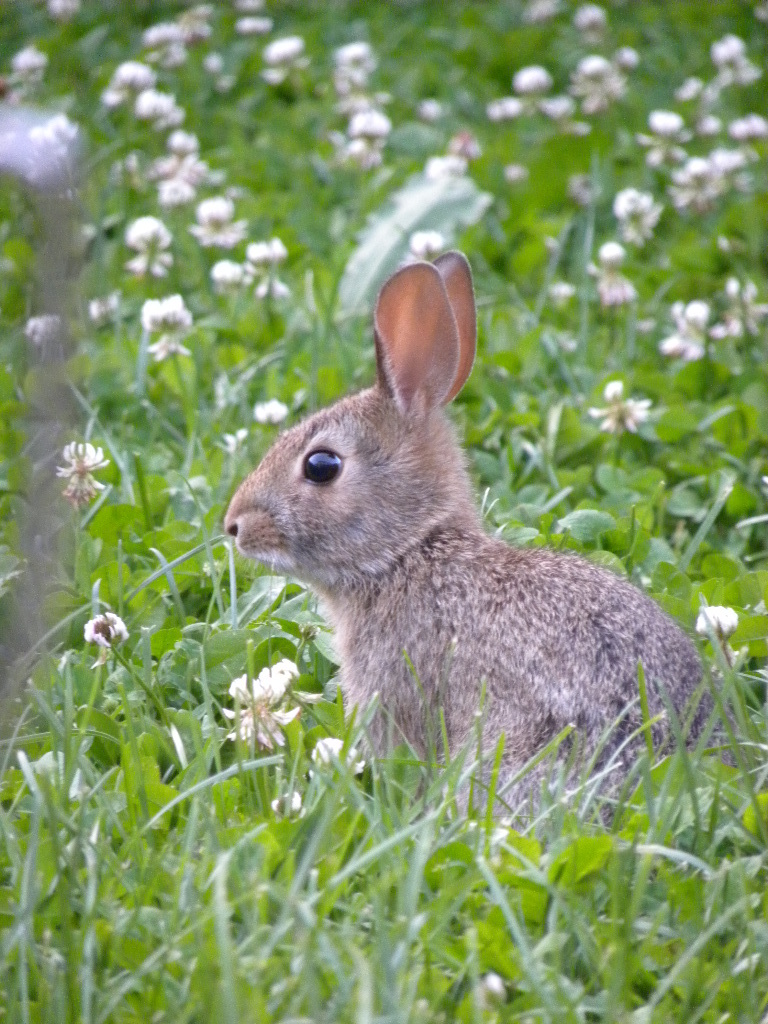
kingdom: Animalia
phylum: Chordata
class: Mammalia
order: Lagomorpha
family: Leporidae
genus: Sylvilagus
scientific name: Sylvilagus floridanus
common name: Eastern cottontail
